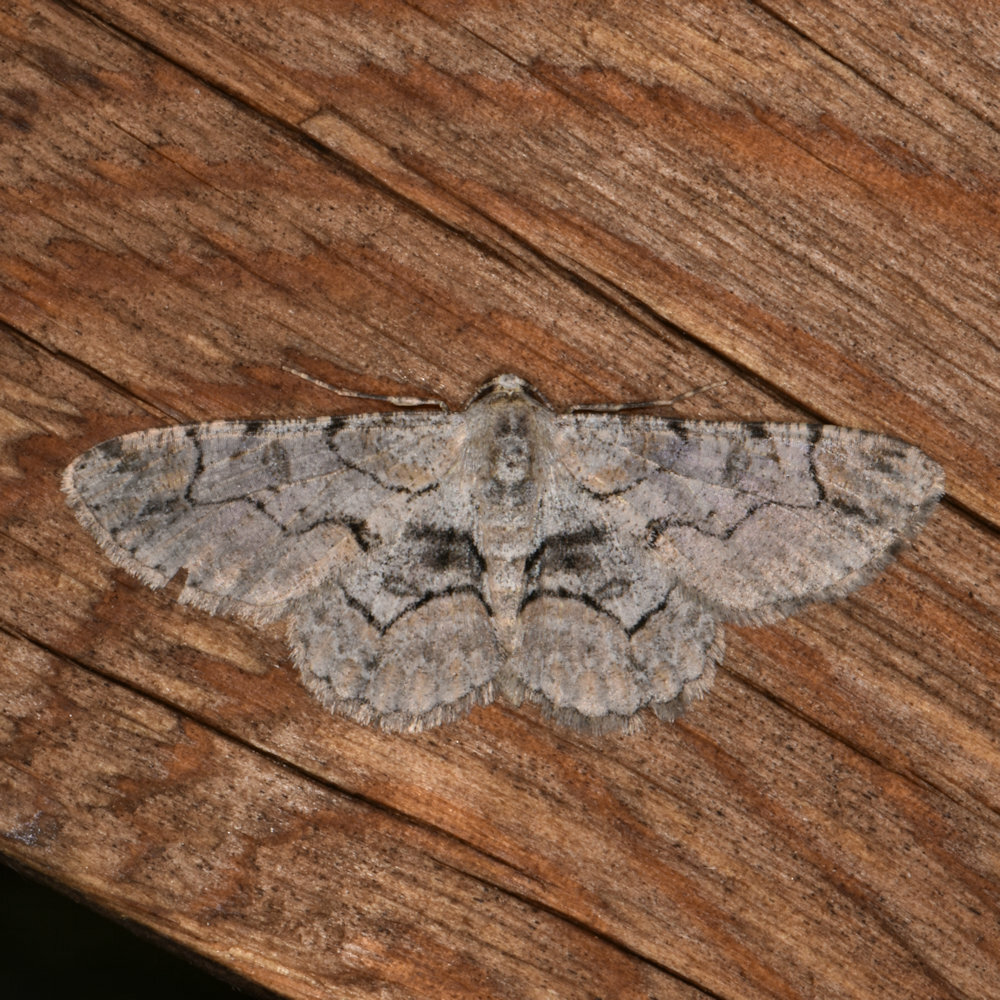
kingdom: Animalia
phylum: Arthropoda
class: Insecta
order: Lepidoptera
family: Geometridae
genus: Iridopsis
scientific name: Iridopsis larvaria
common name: Bent-line gray
